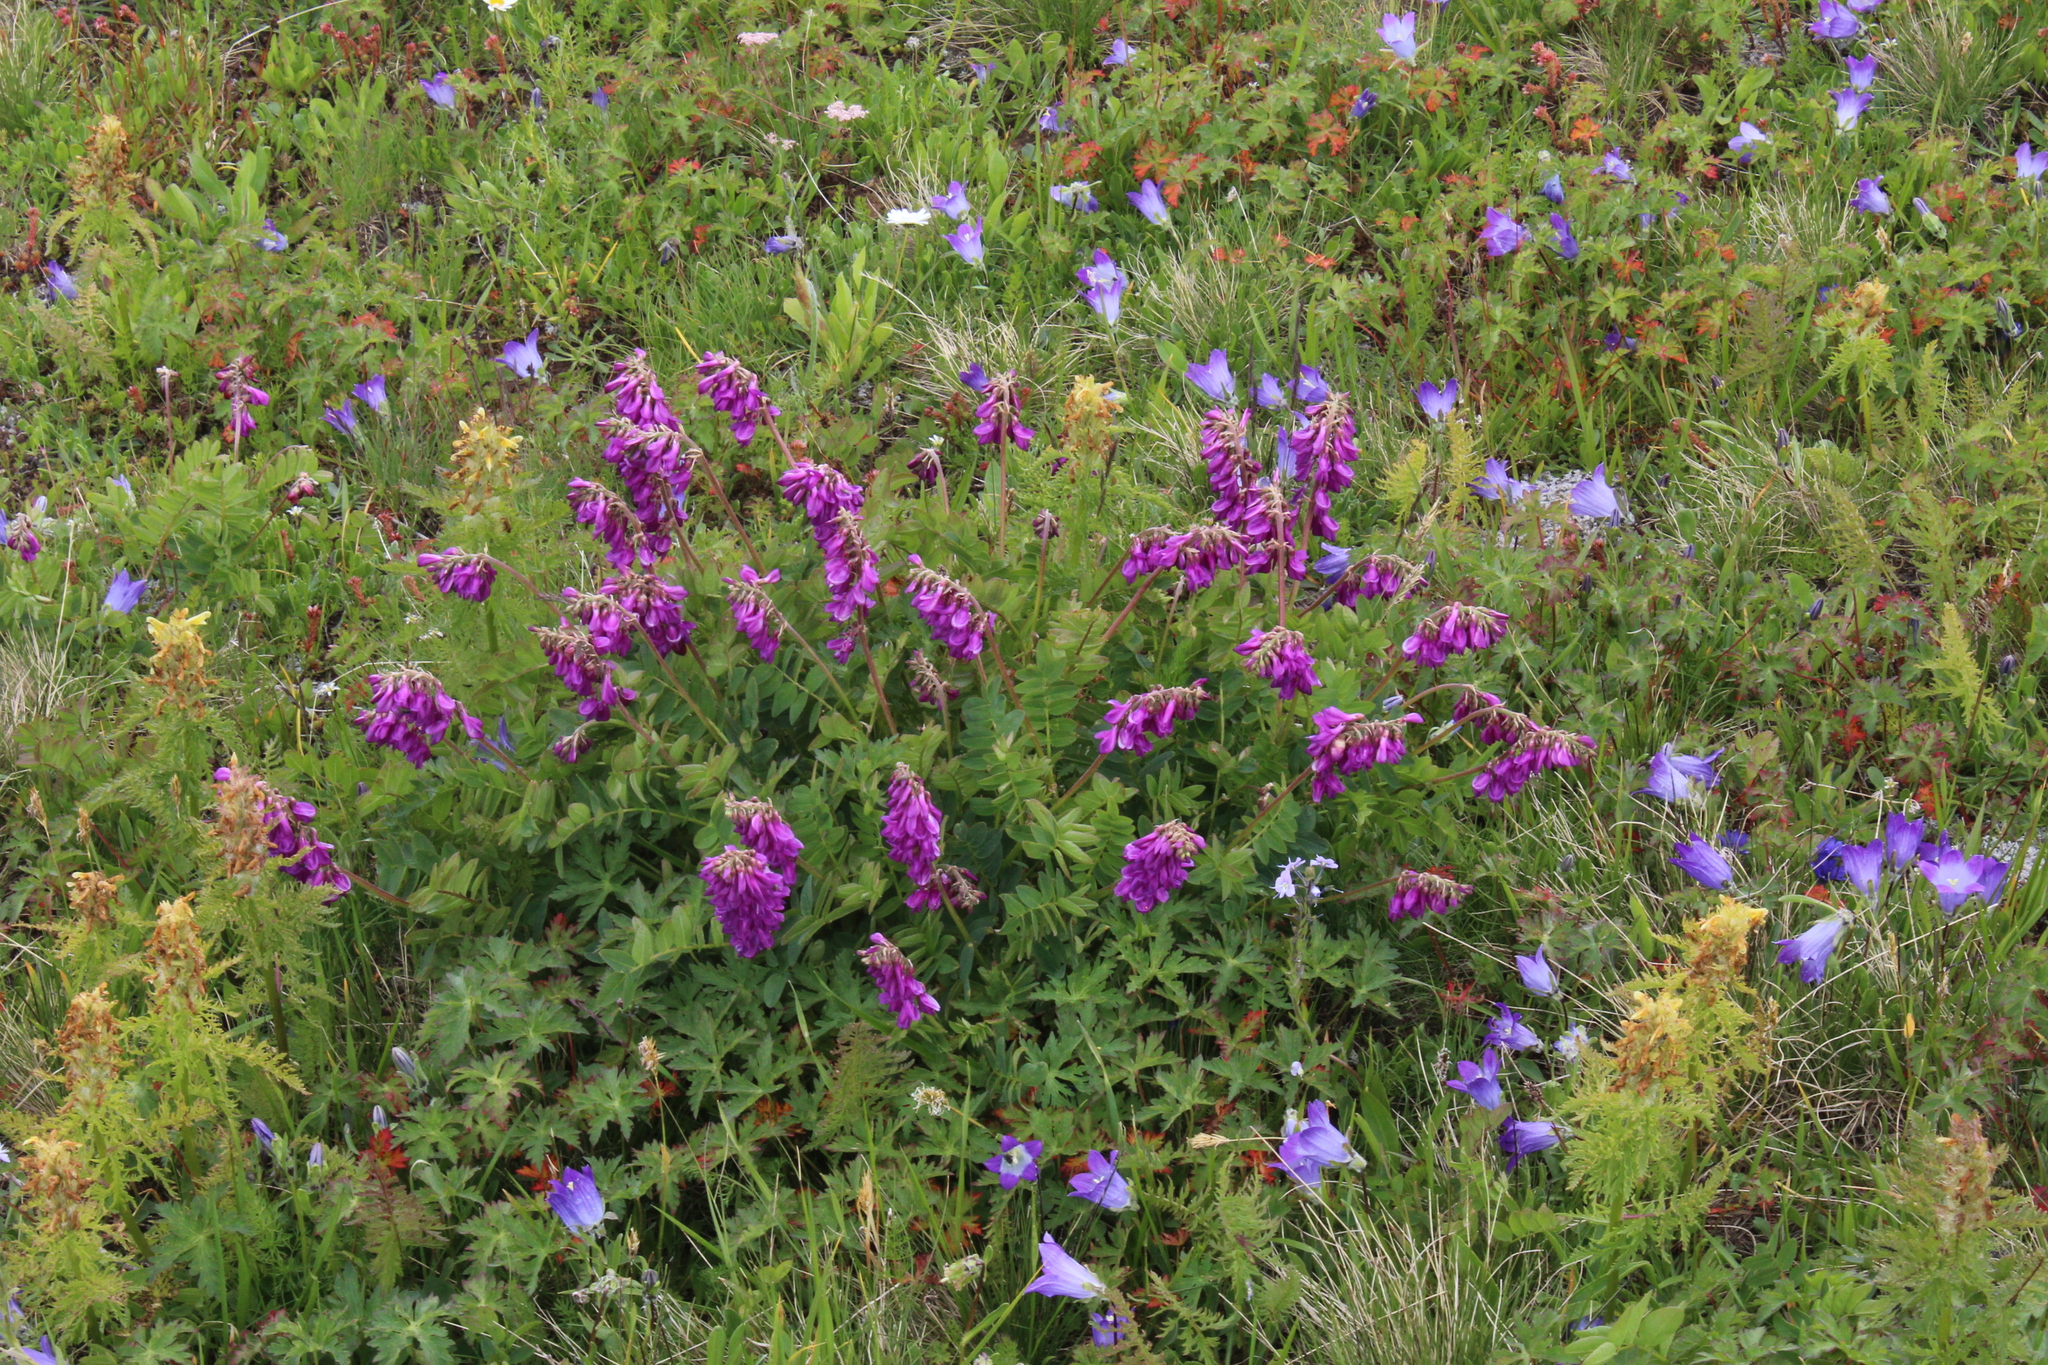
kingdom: Plantae
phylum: Tracheophyta
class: Magnoliopsida
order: Fabales
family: Fabaceae
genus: Hedysarum
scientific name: Hedysarum caucasicum
